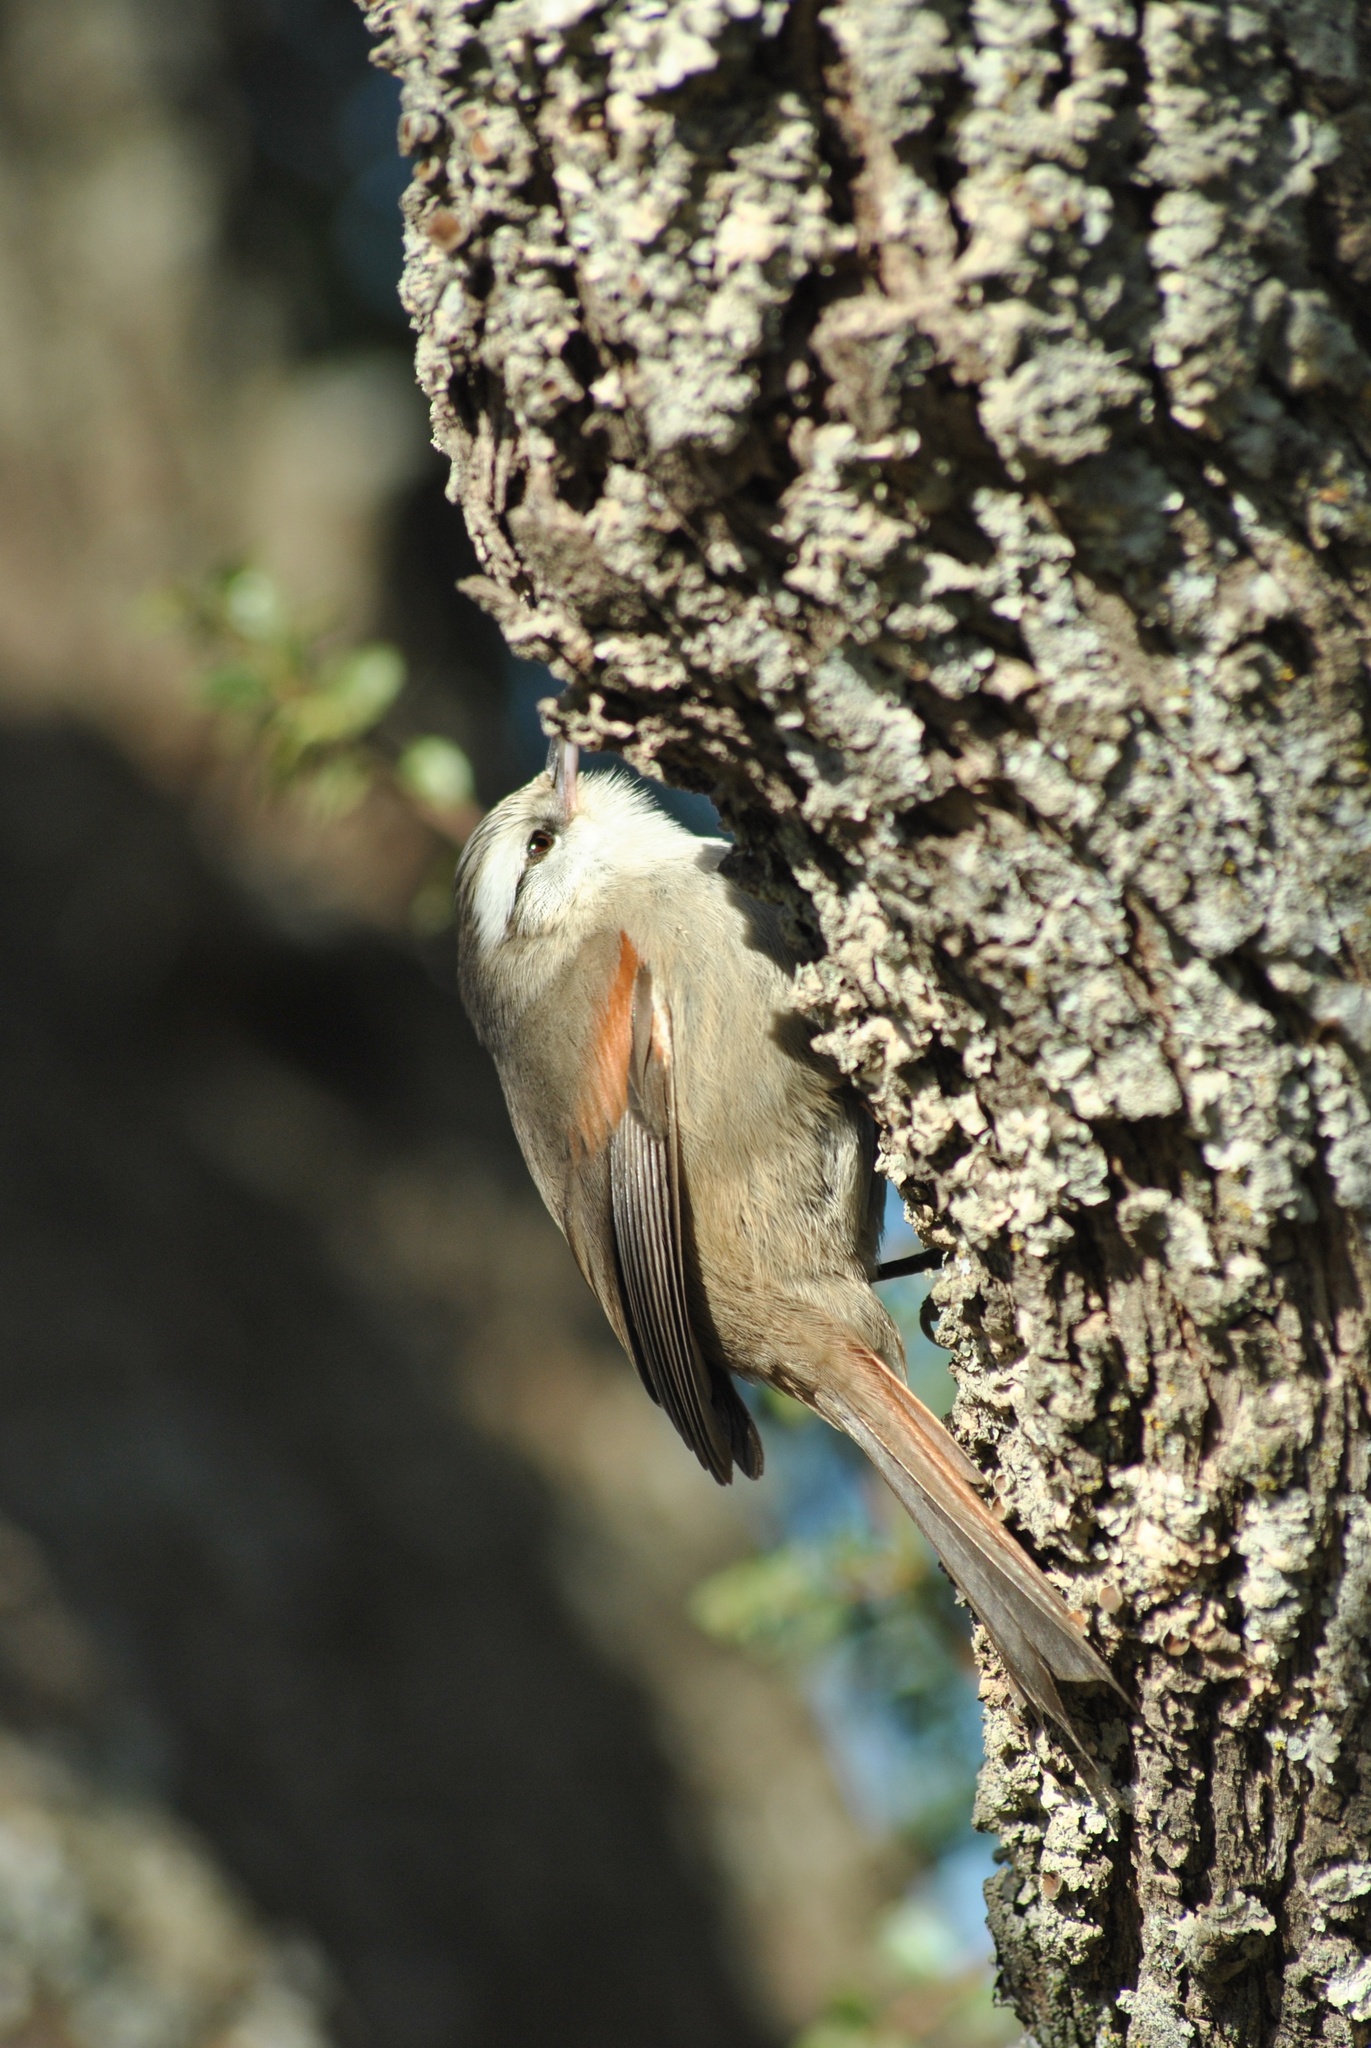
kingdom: Animalia
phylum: Chordata
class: Aves
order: Passeriformes
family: Furnariidae
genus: Cranioleuca
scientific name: Cranioleuca pyrrhophia
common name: Stripe-crowned spinetail
